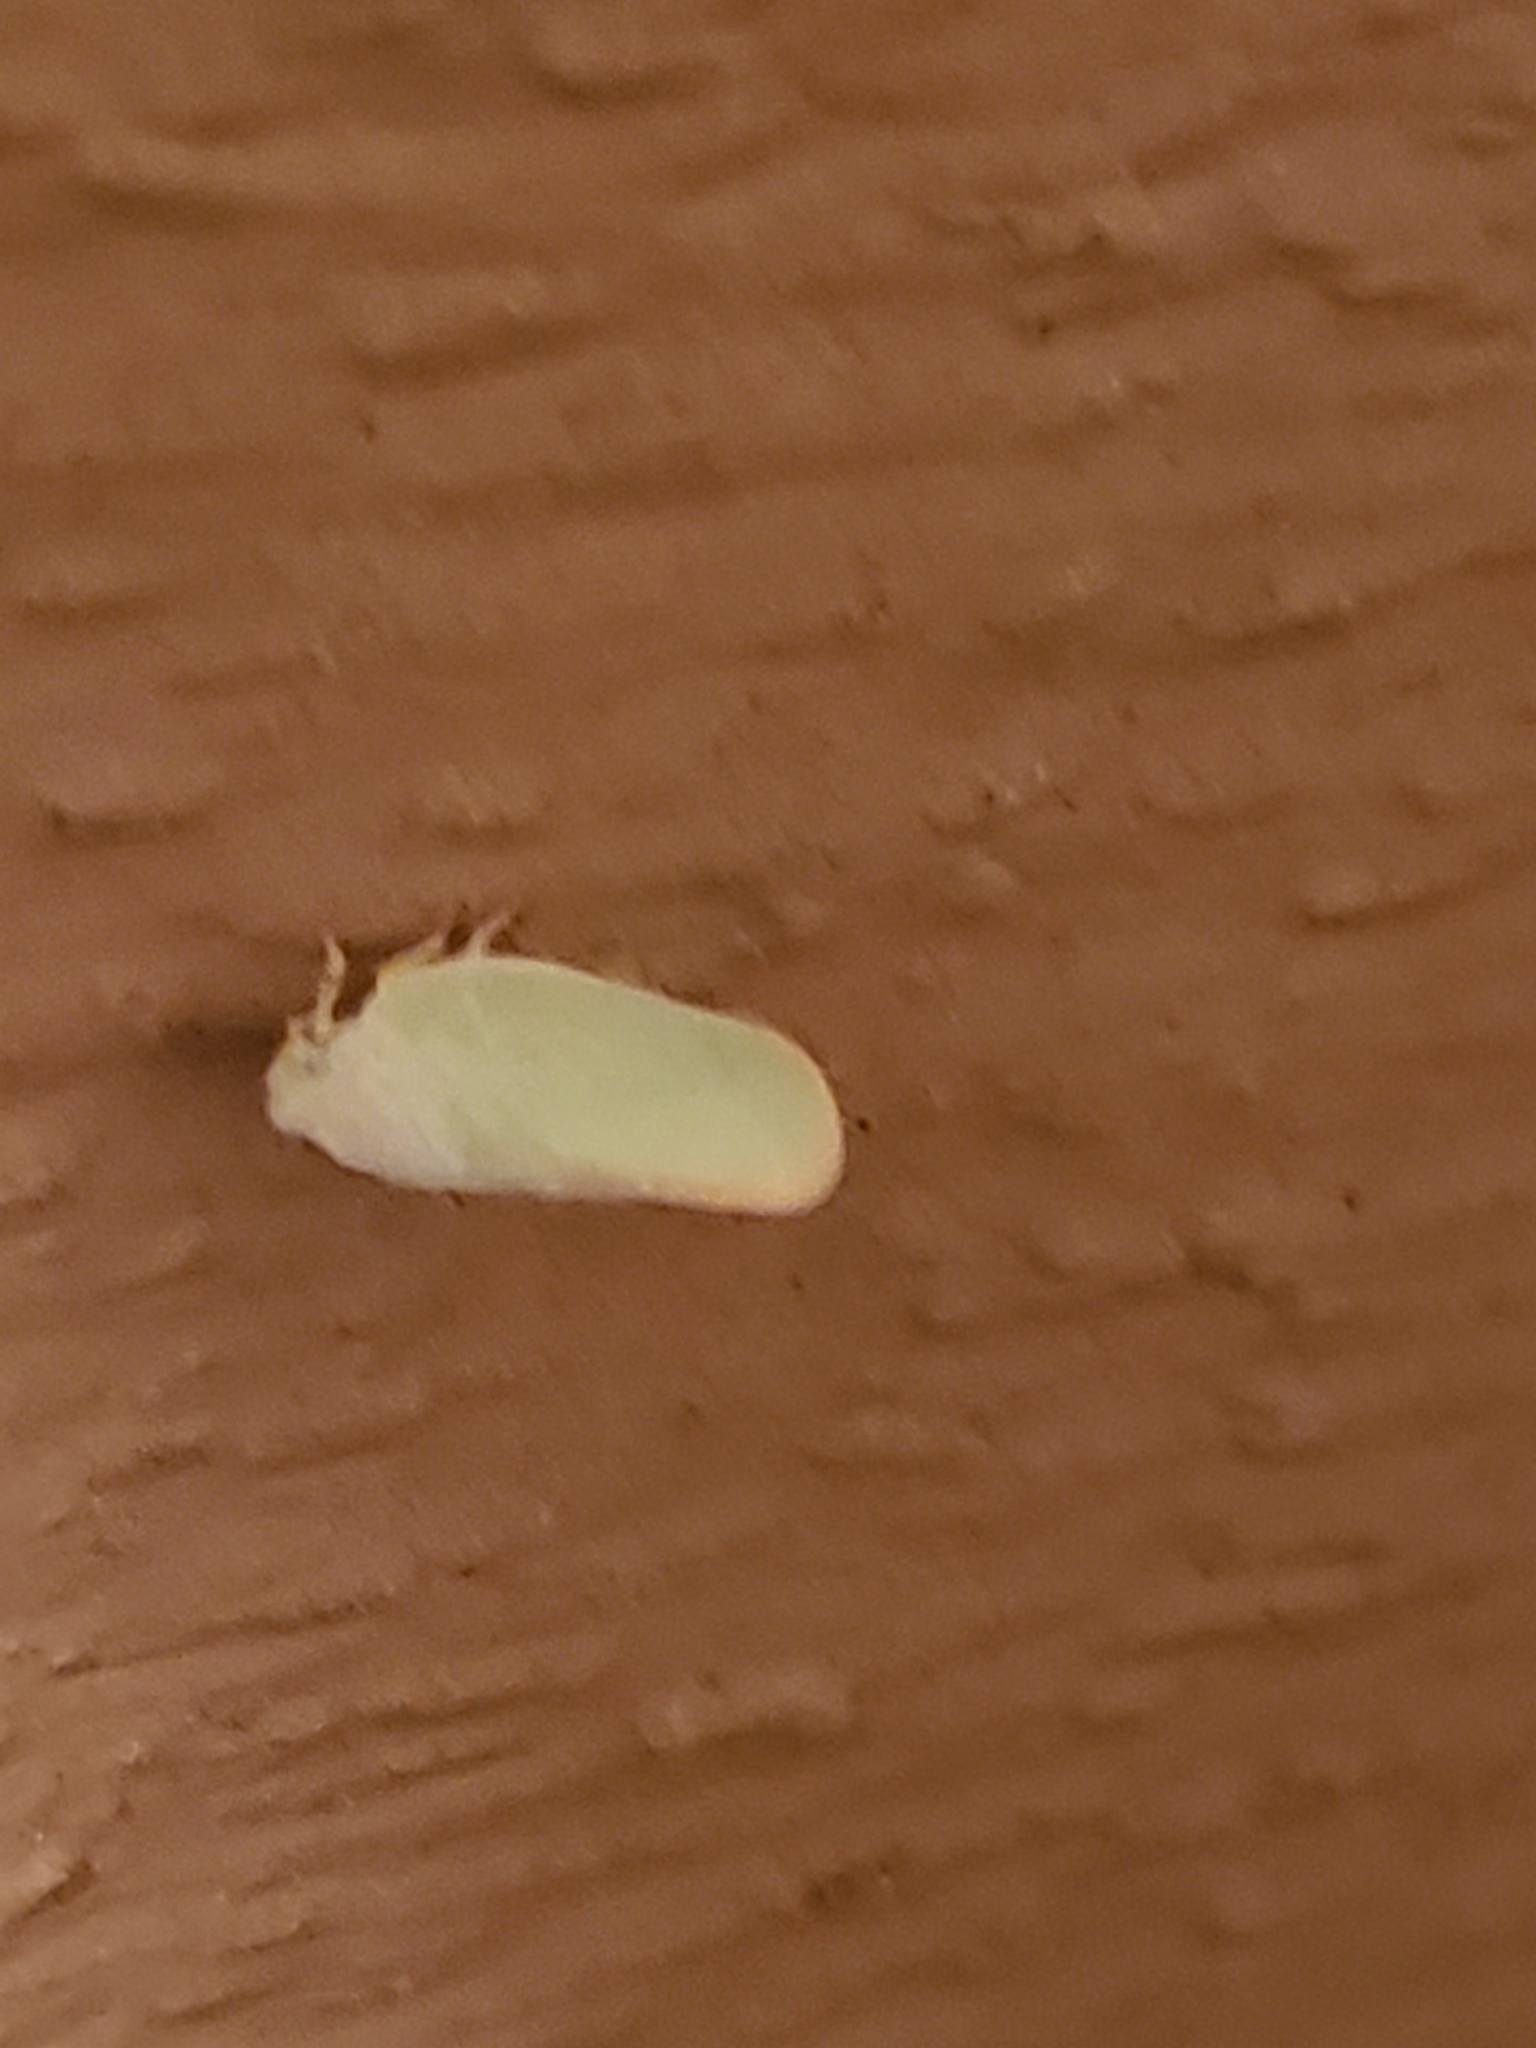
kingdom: Animalia
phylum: Arthropoda
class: Insecta
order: Hemiptera
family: Flatidae
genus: Ormenoides
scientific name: Ormenoides venusta
